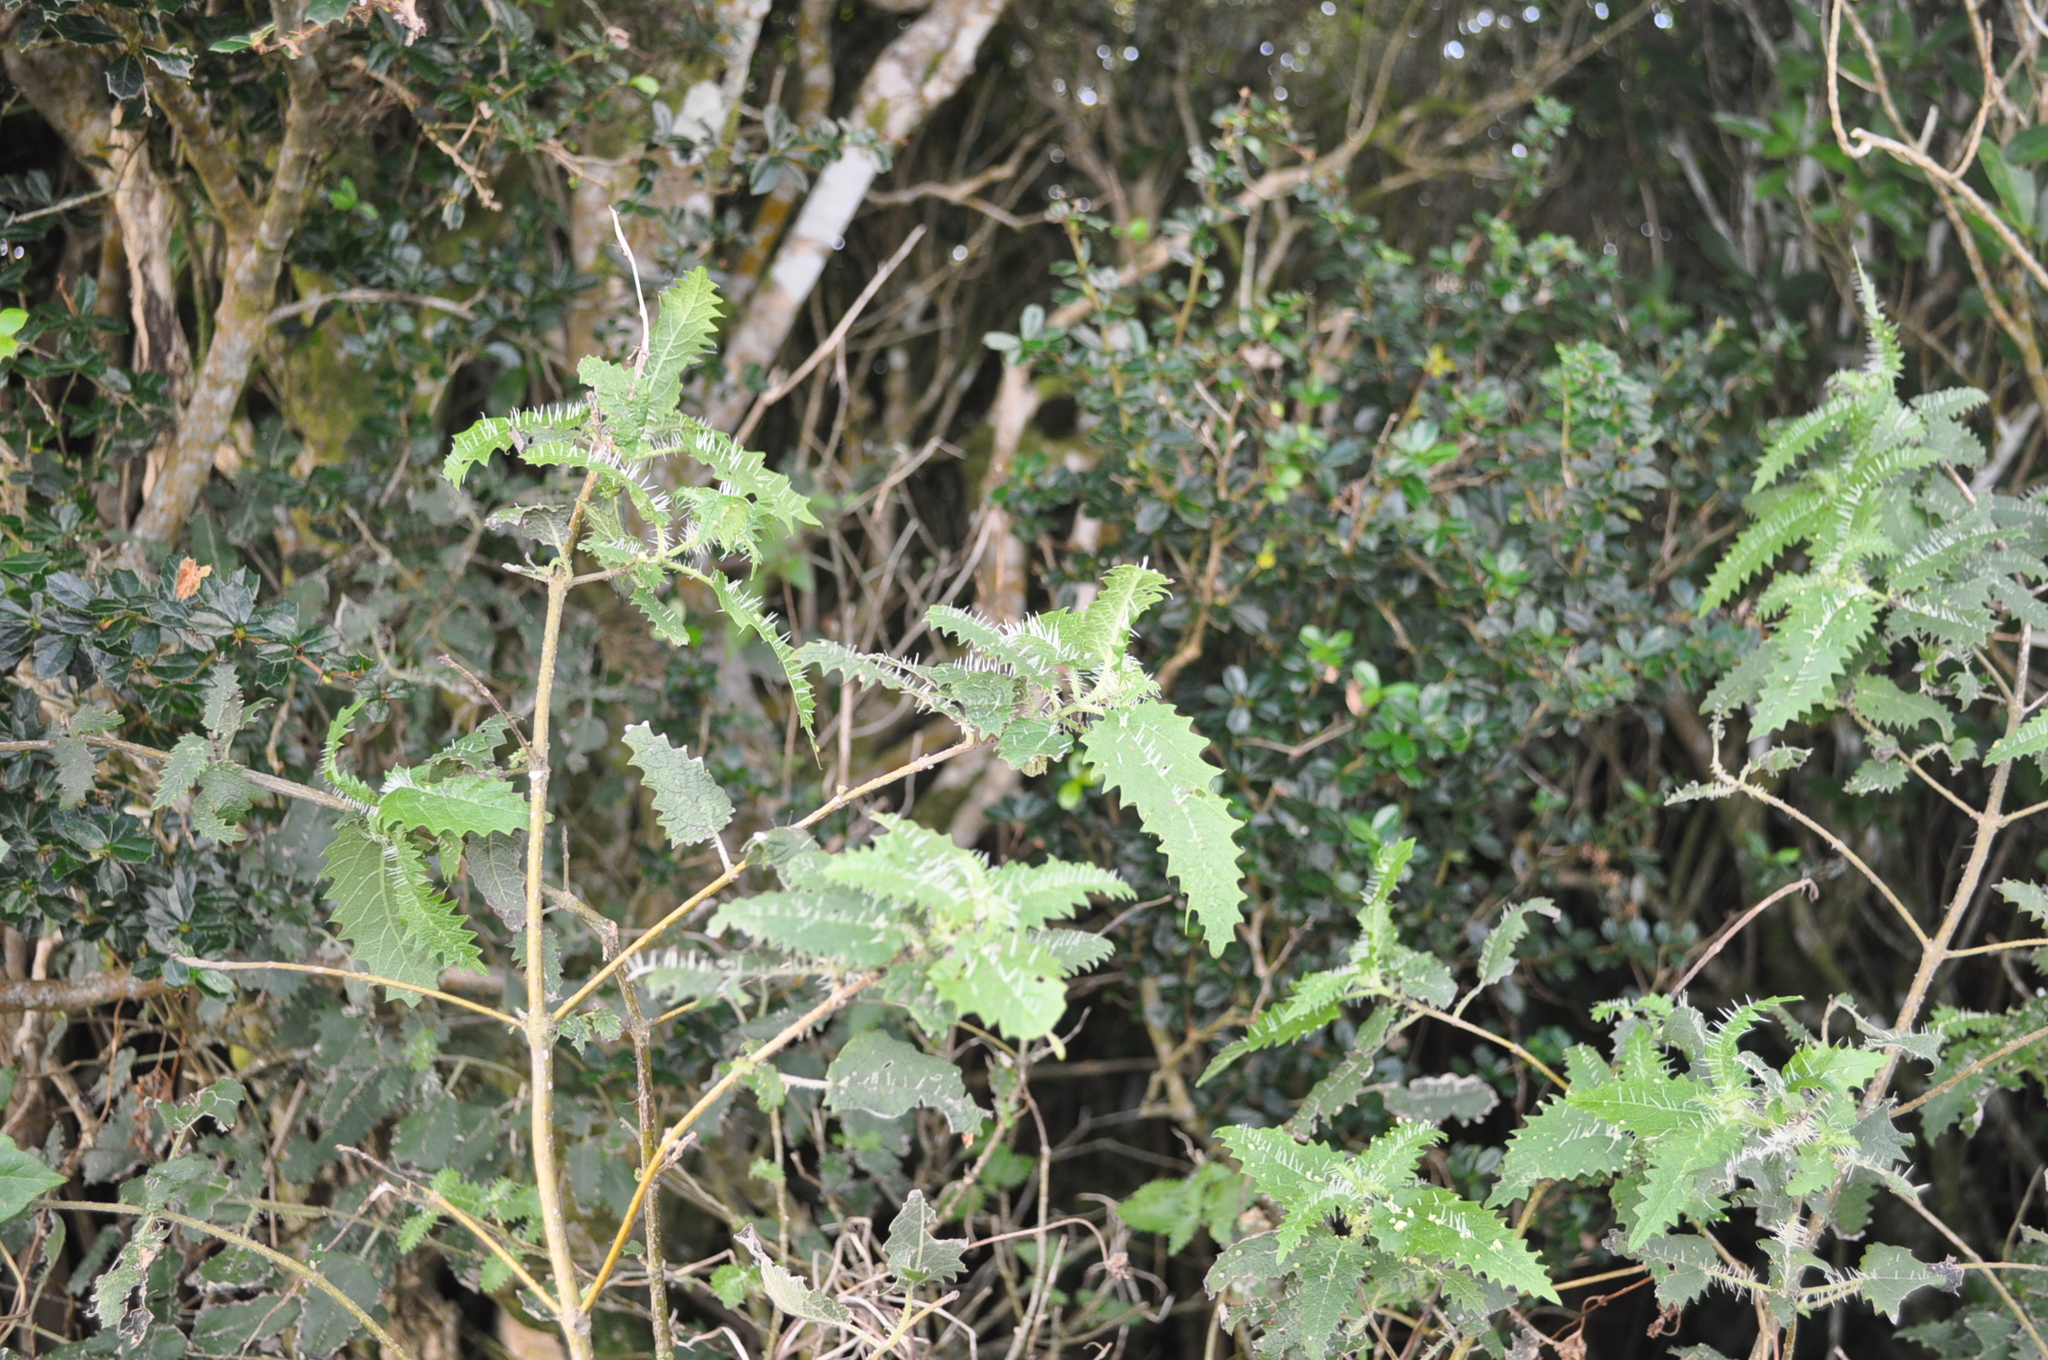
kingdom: Plantae
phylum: Tracheophyta
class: Magnoliopsida
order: Rosales
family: Urticaceae
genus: Urtica
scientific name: Urtica ferox
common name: Tree nettle
